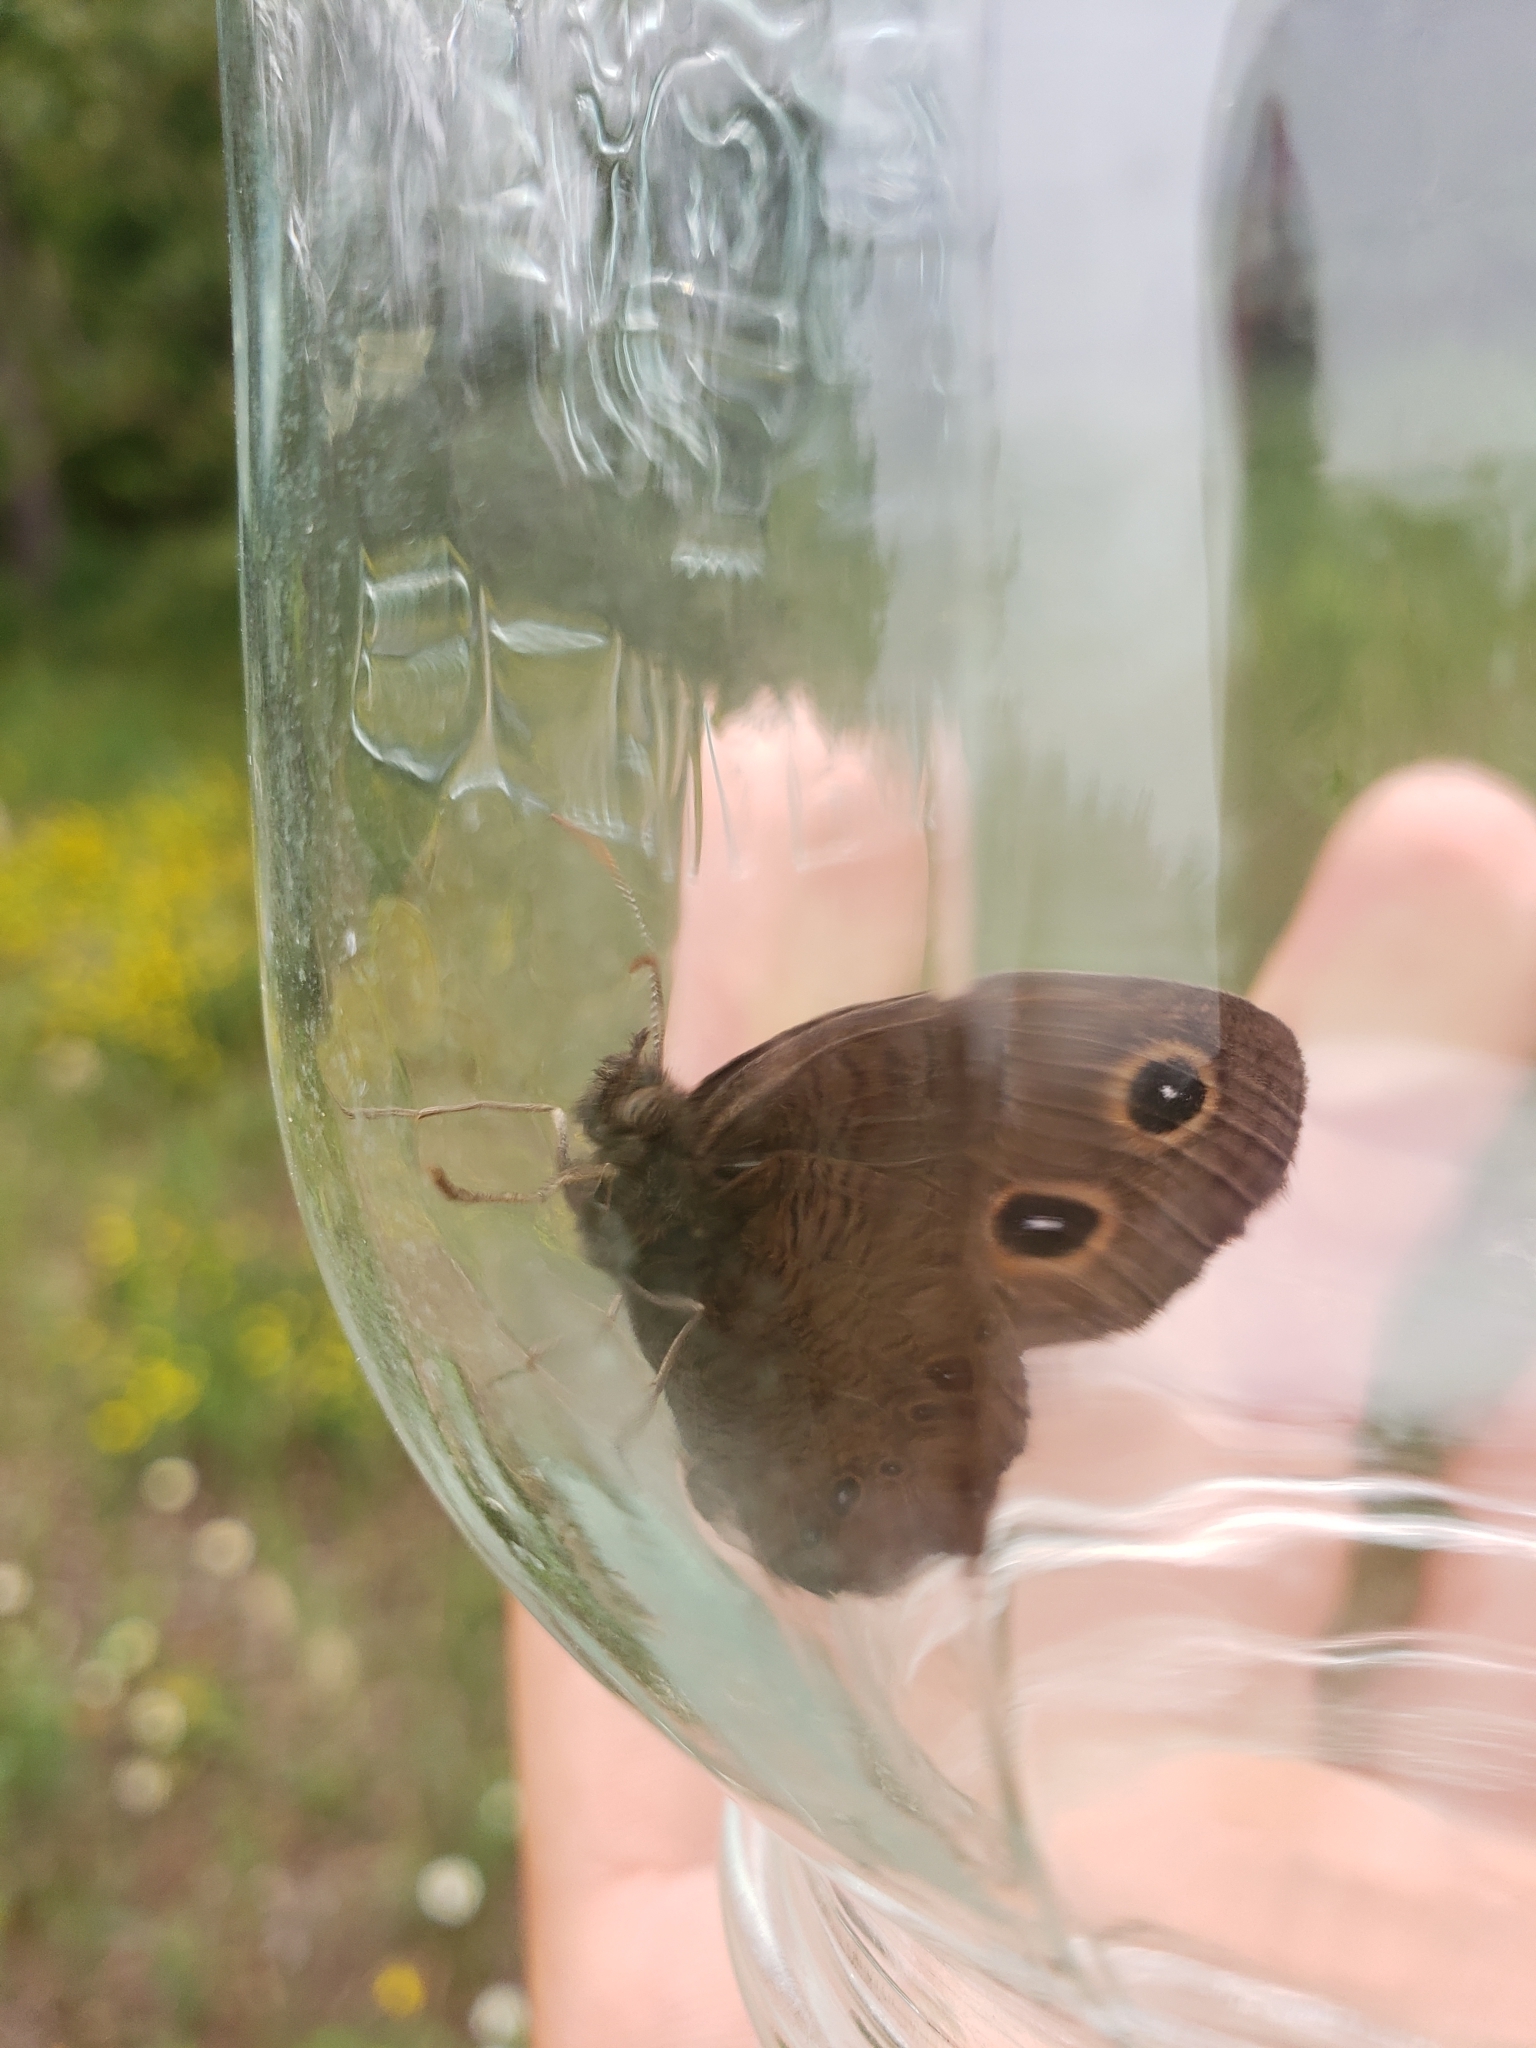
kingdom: Animalia
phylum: Arthropoda
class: Insecta
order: Lepidoptera
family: Nymphalidae
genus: Cercyonis
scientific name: Cercyonis pegala
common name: Common wood-nymph
